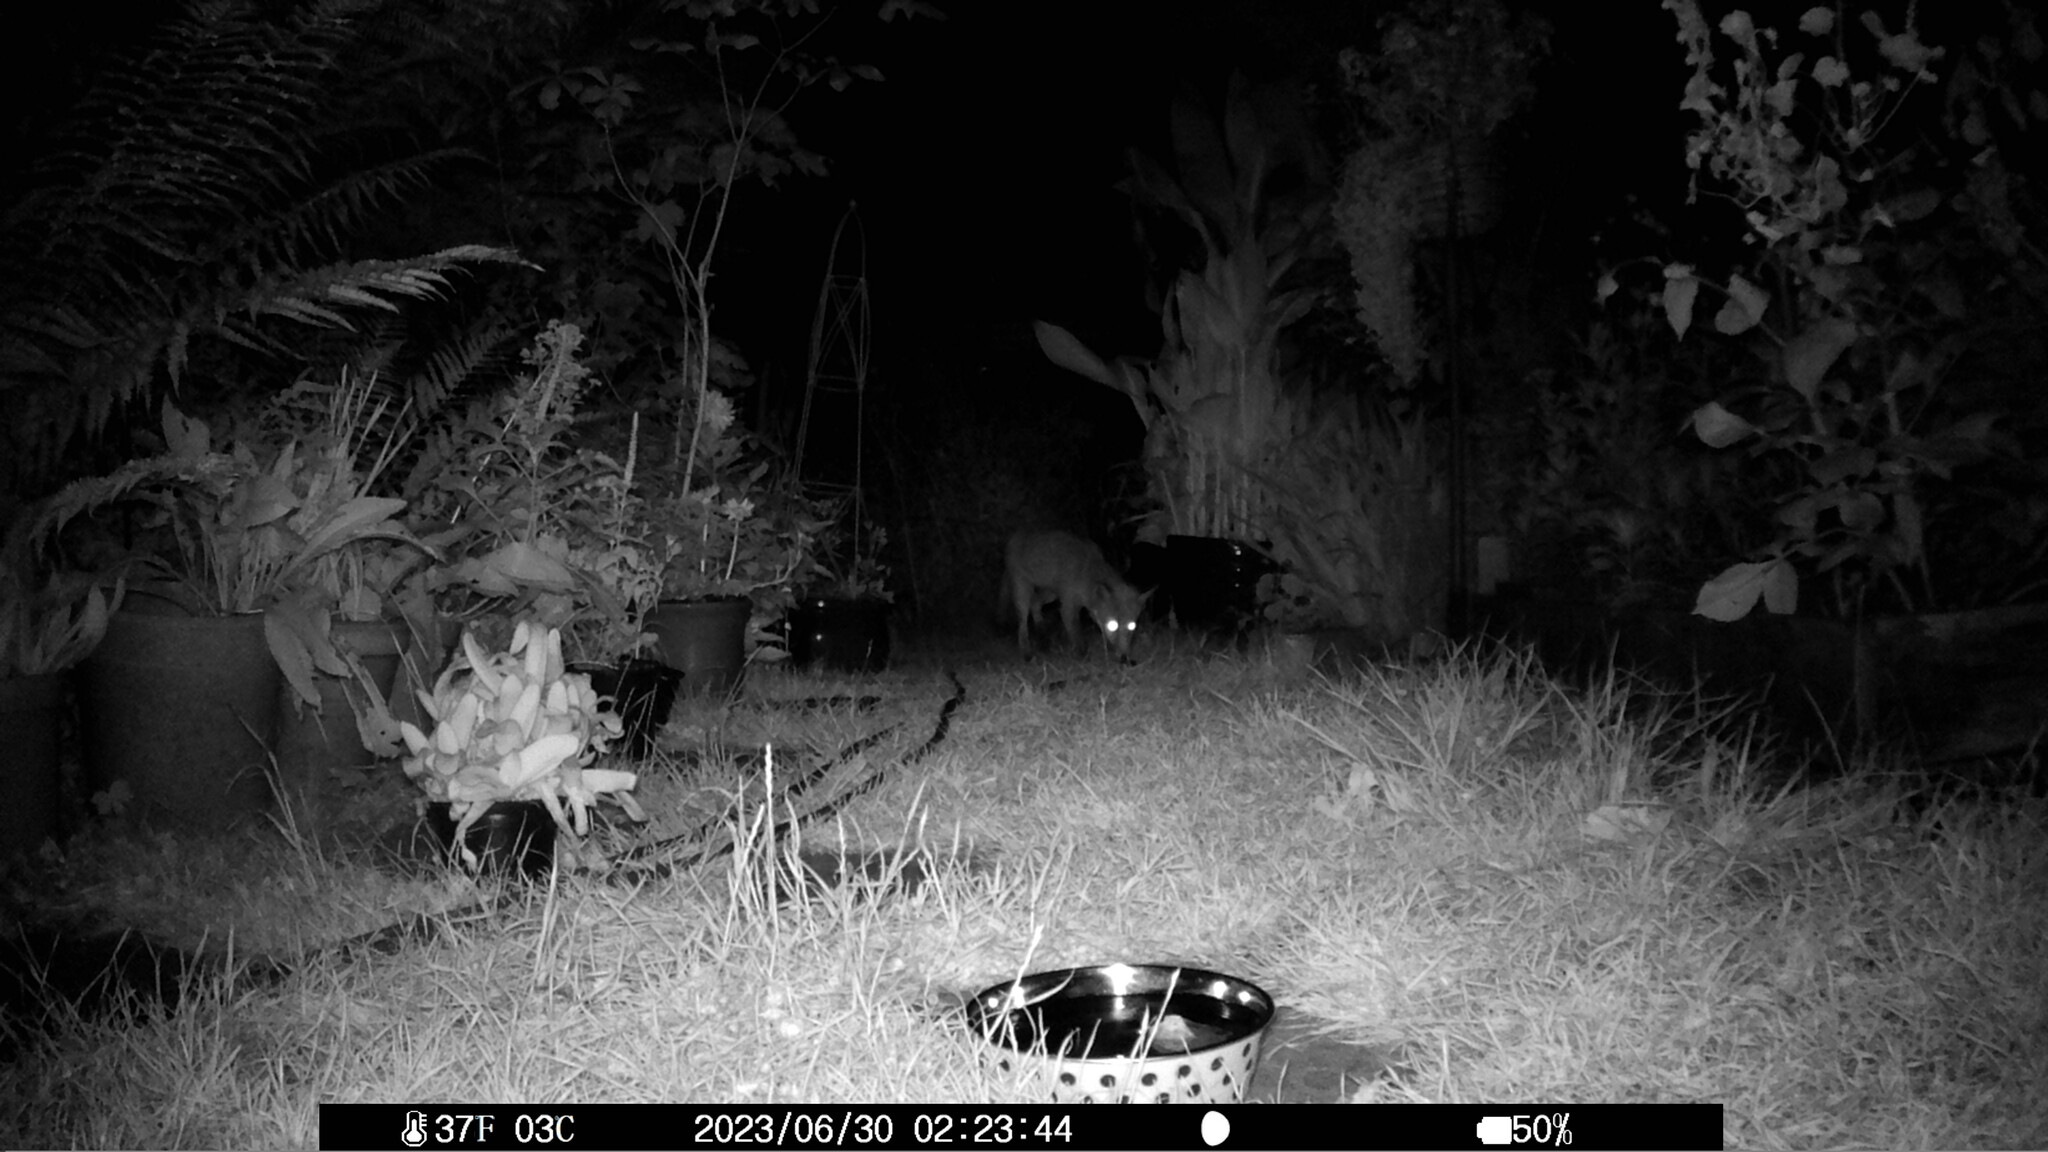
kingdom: Animalia
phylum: Chordata
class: Mammalia
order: Carnivora
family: Canidae
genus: Vulpes
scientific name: Vulpes vulpes
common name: Red fox
